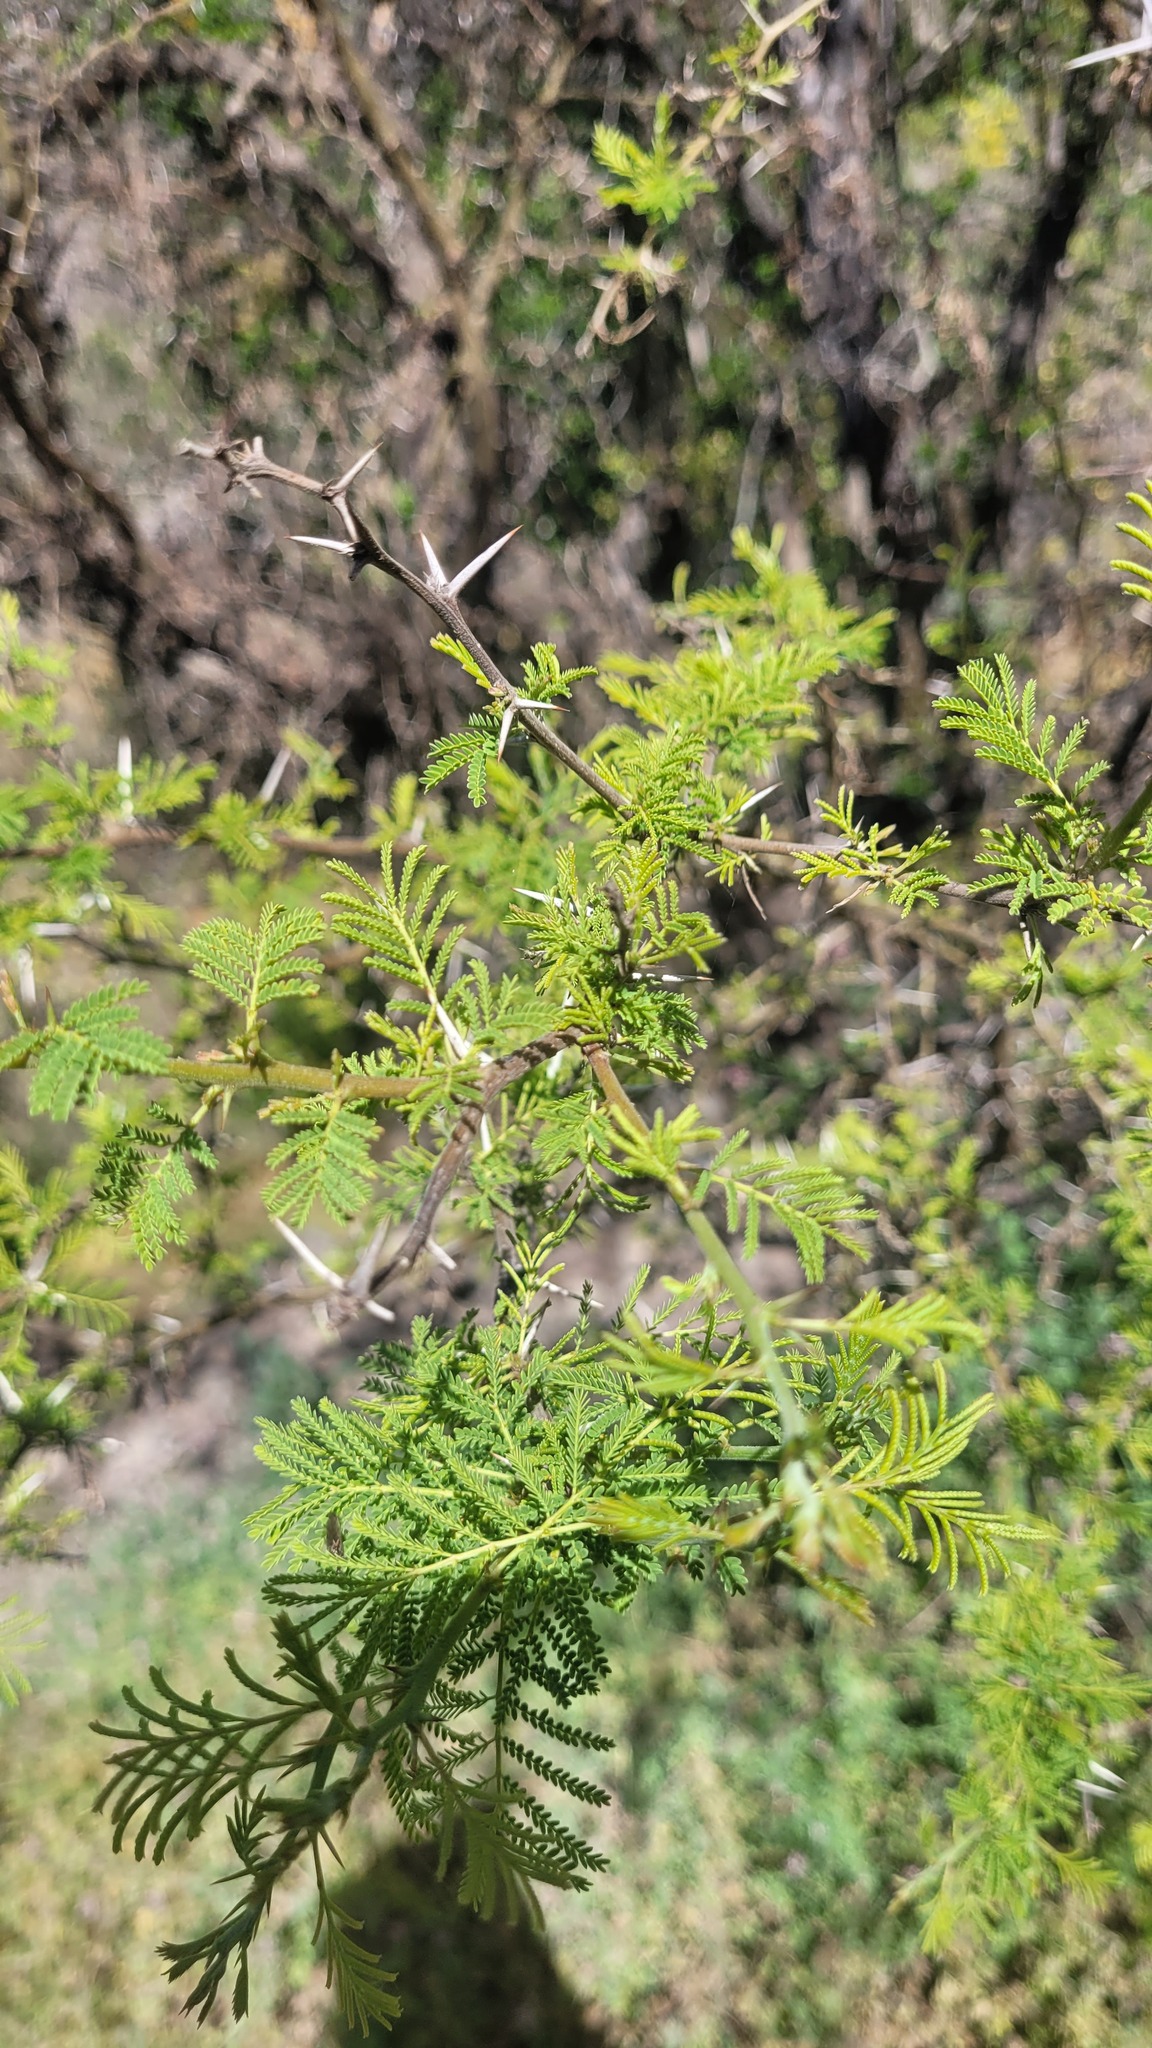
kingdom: Plantae
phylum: Tracheophyta
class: Magnoliopsida
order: Fabales
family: Fabaceae
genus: Vachellia
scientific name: Vachellia caven
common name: Roman cassie
